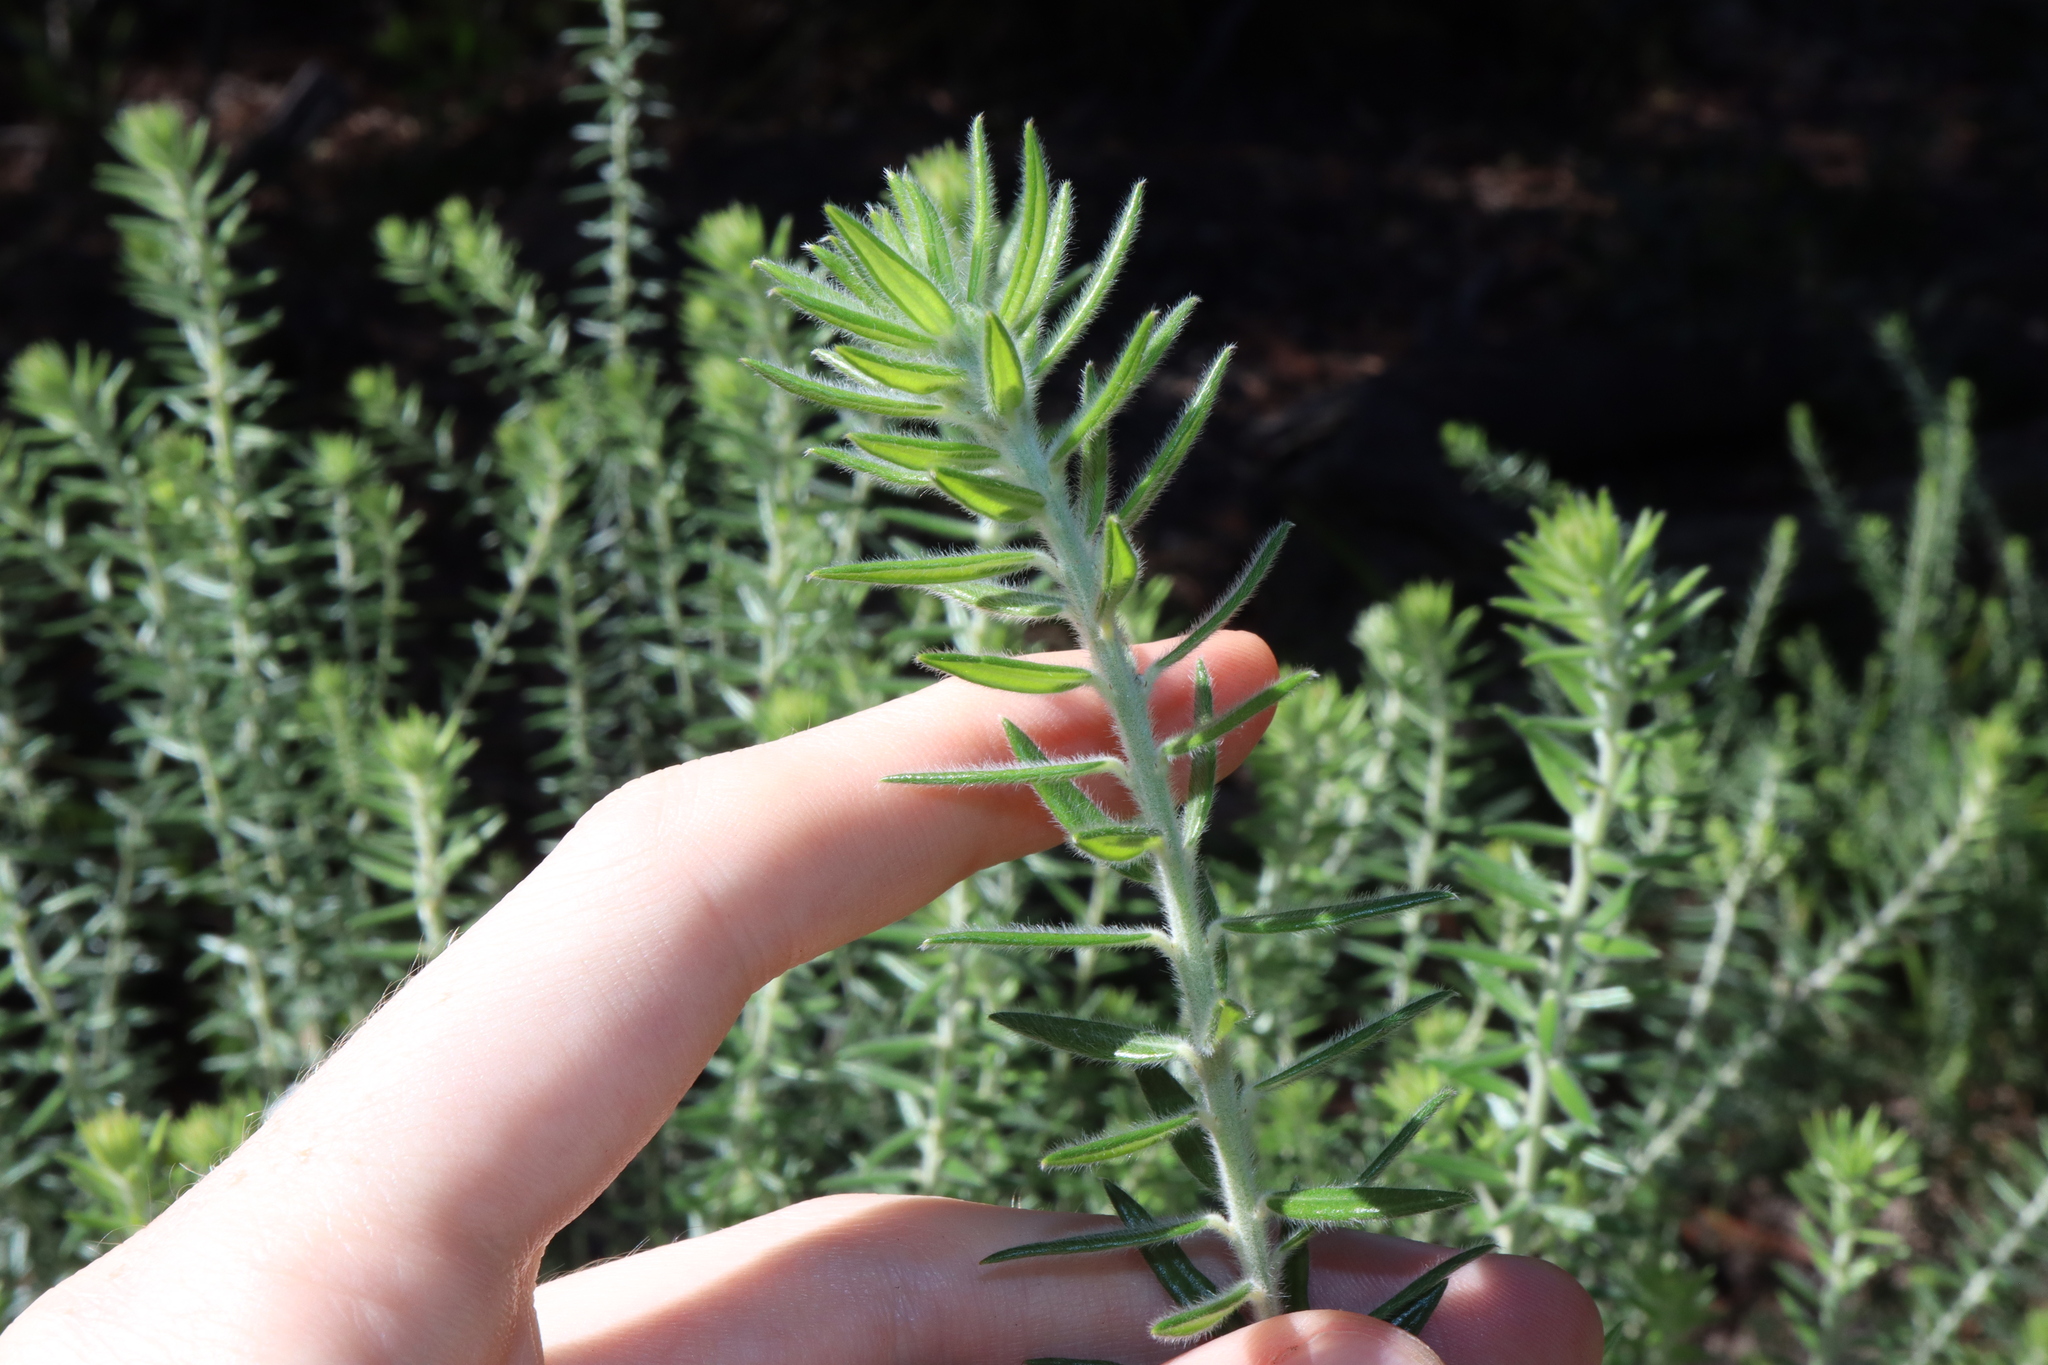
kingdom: Plantae
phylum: Tracheophyta
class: Magnoliopsida
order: Fabales
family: Fabaceae
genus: Aotus
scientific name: Aotus lanigera
